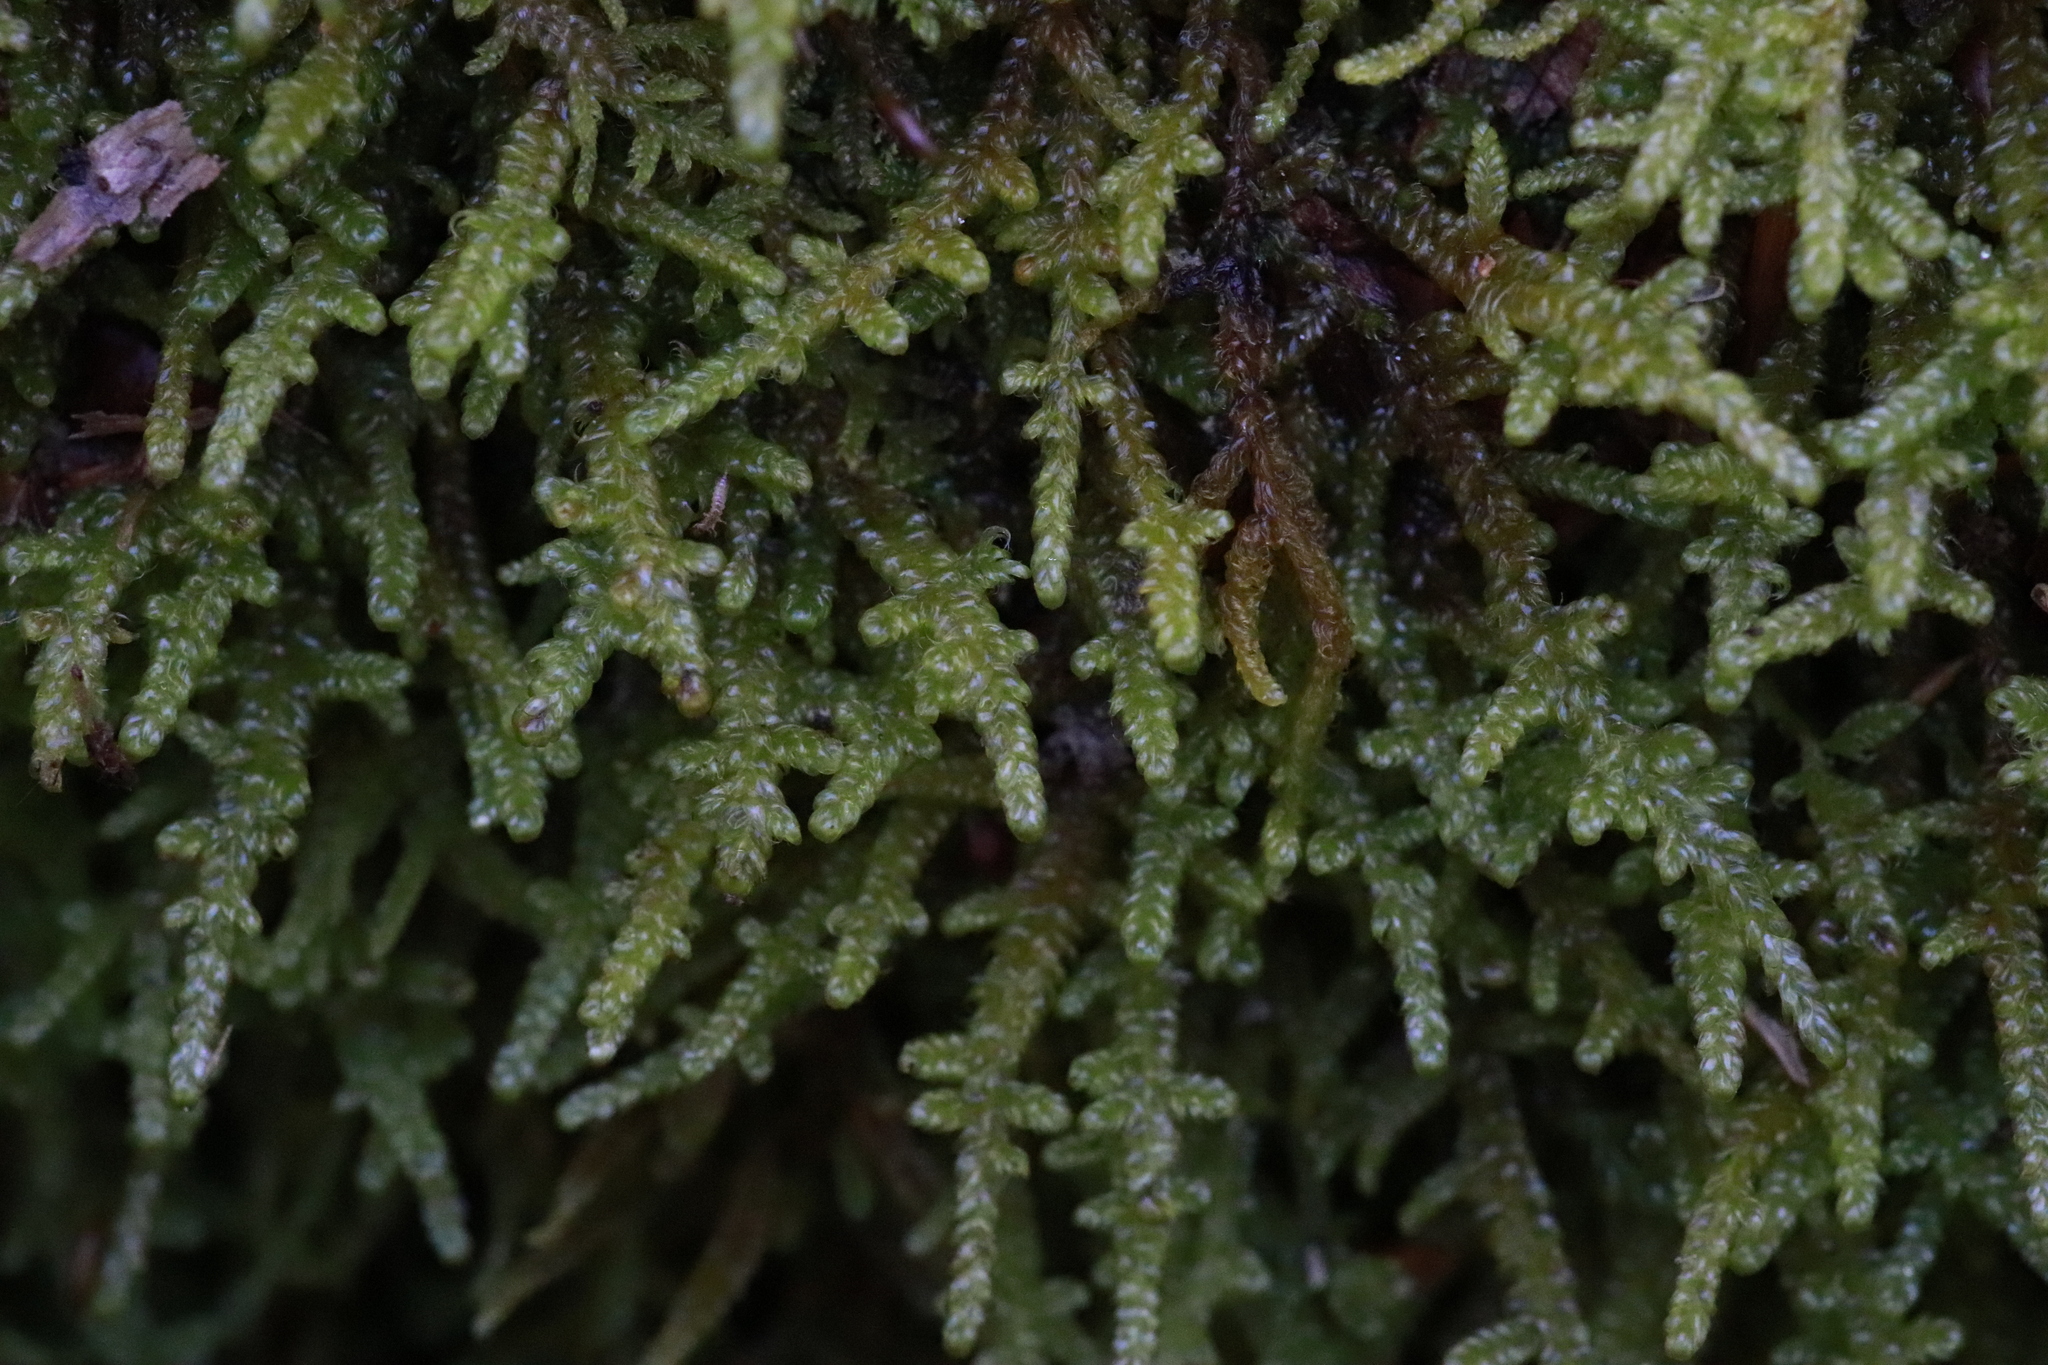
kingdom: Plantae
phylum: Bryophyta
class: Bryopsida
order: Hypnales
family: Hypnaceae
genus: Hypnum
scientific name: Hypnum cupressiforme
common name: Cypress-leaved plait-moss
